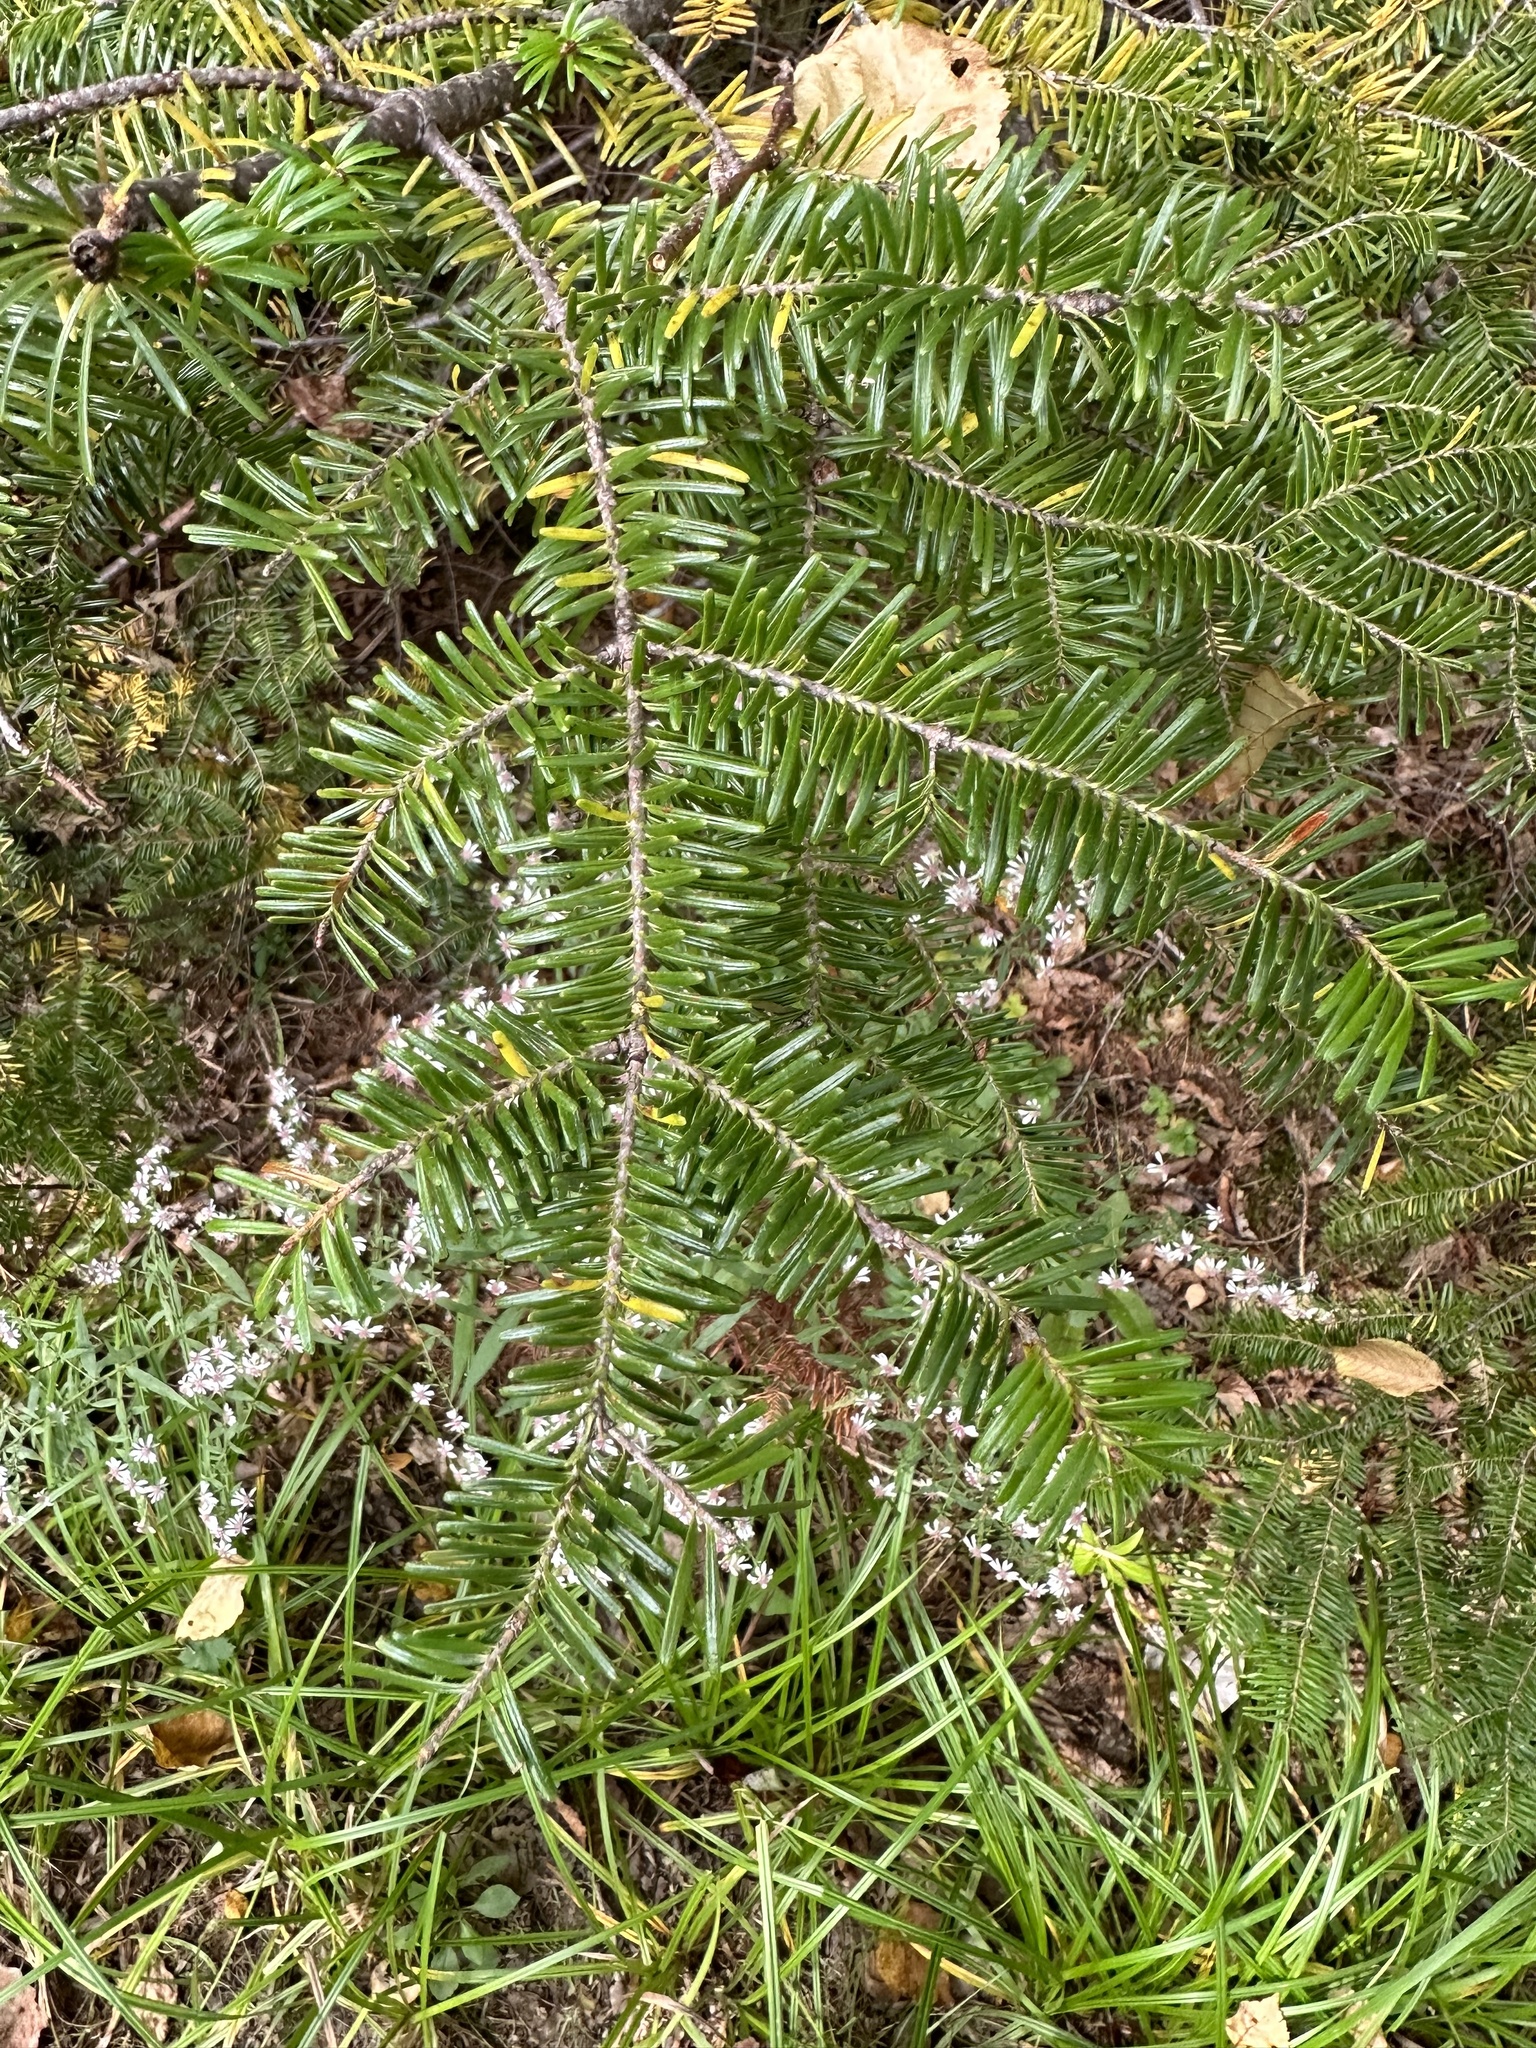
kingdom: Plantae
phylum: Tracheophyta
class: Pinopsida
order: Pinales
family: Pinaceae
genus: Abies
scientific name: Abies balsamea
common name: Balsam fir
